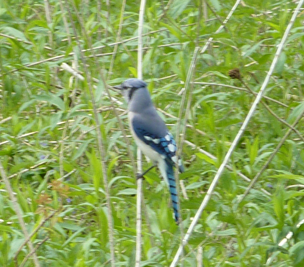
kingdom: Animalia
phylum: Chordata
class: Aves
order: Passeriformes
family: Corvidae
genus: Cyanocitta
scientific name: Cyanocitta cristata
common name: Blue jay
